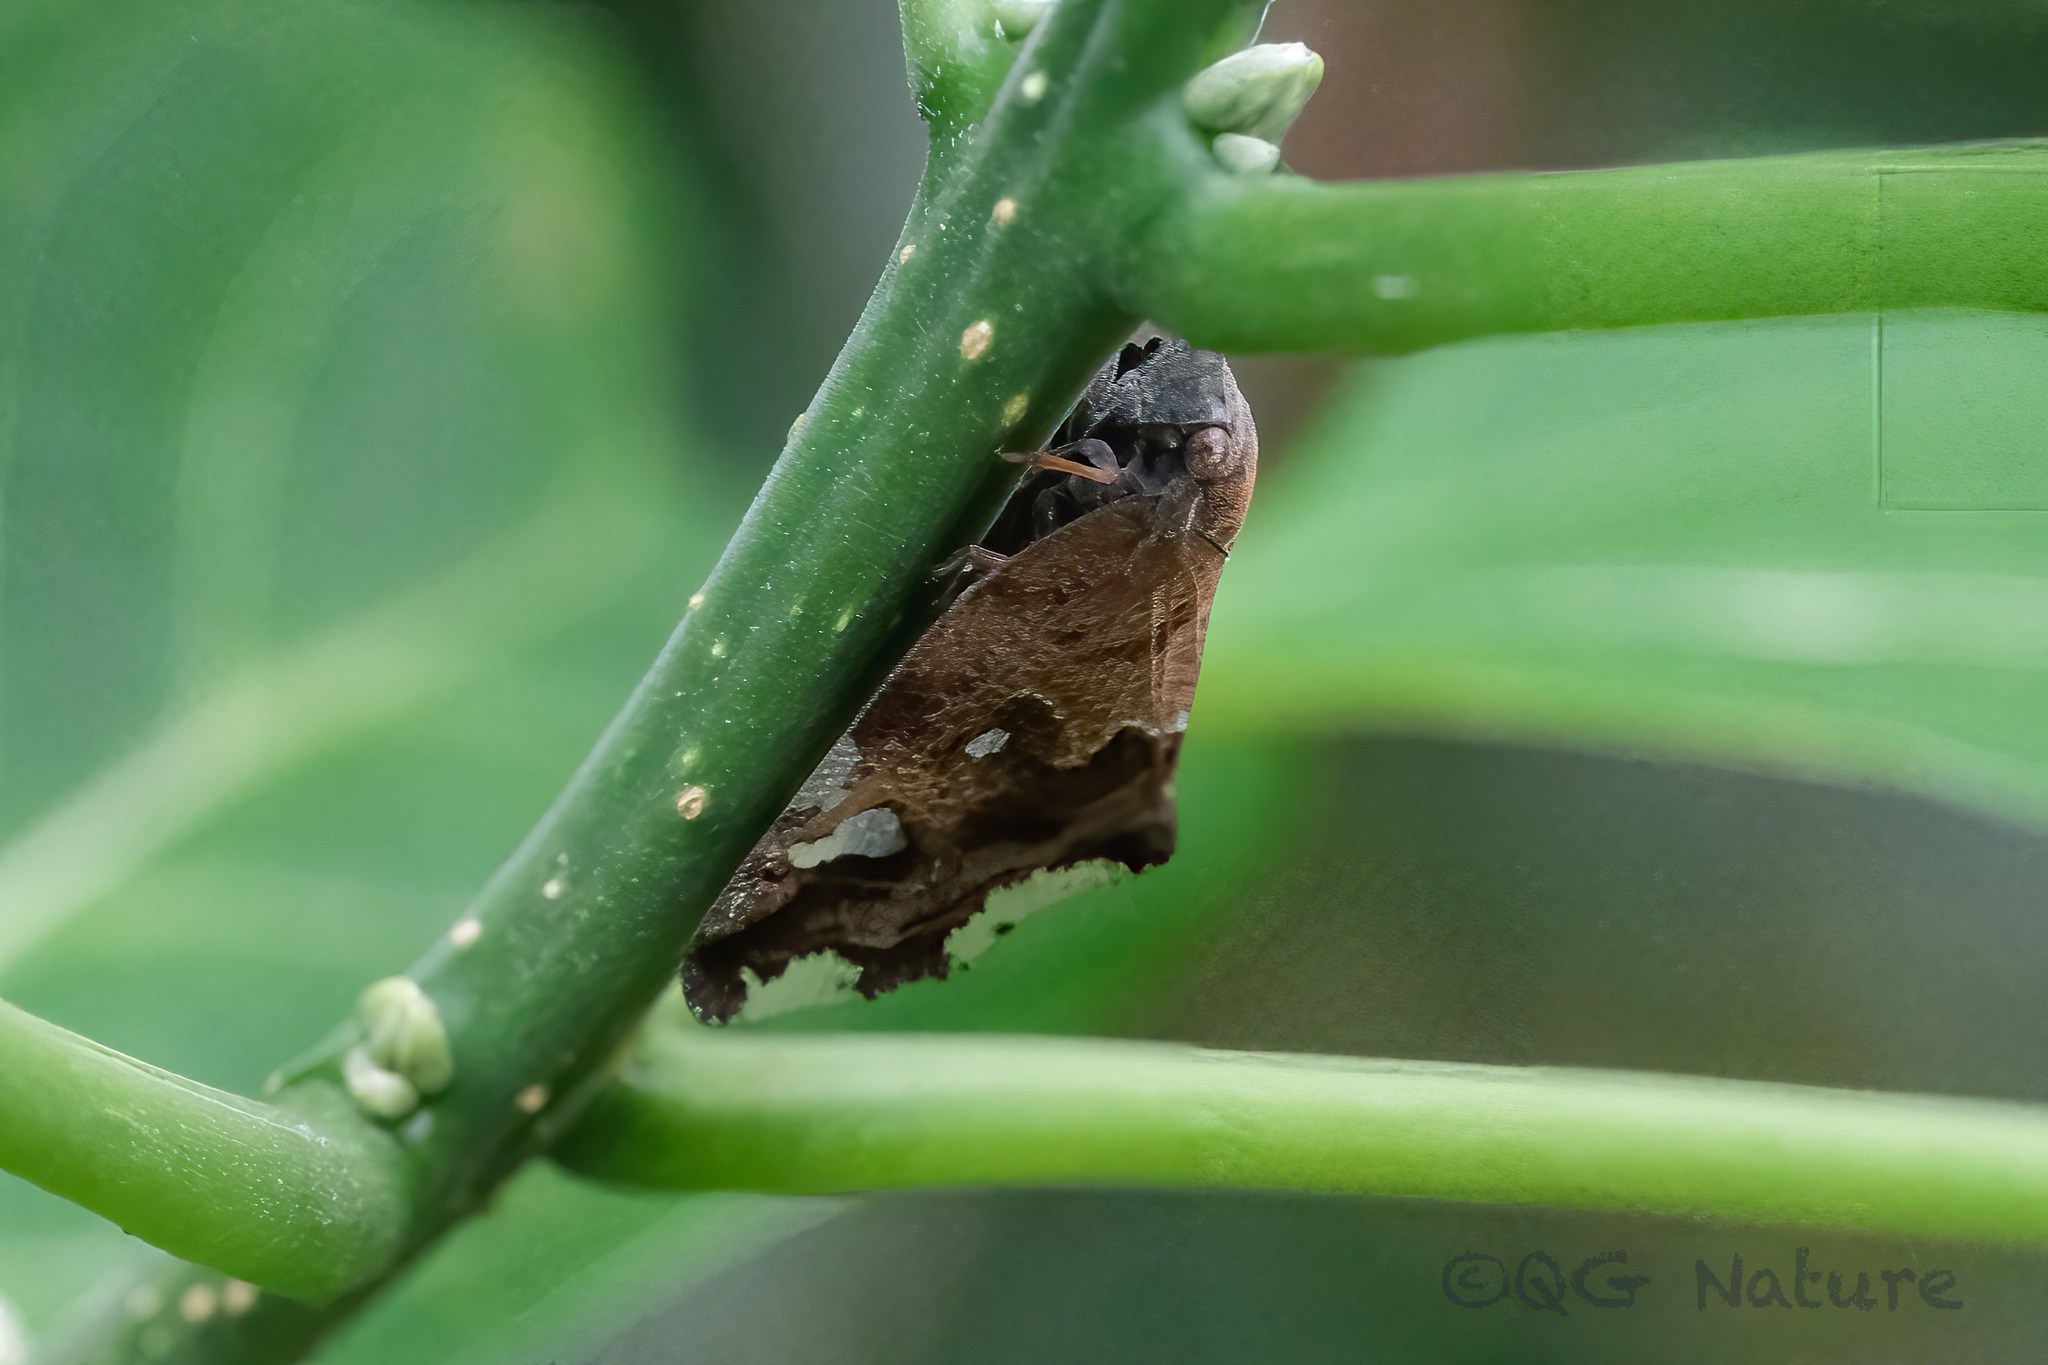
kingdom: Animalia
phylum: Arthropoda
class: Insecta
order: Hemiptera
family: Ricaniidae
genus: Ricania
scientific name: Ricania speculum
